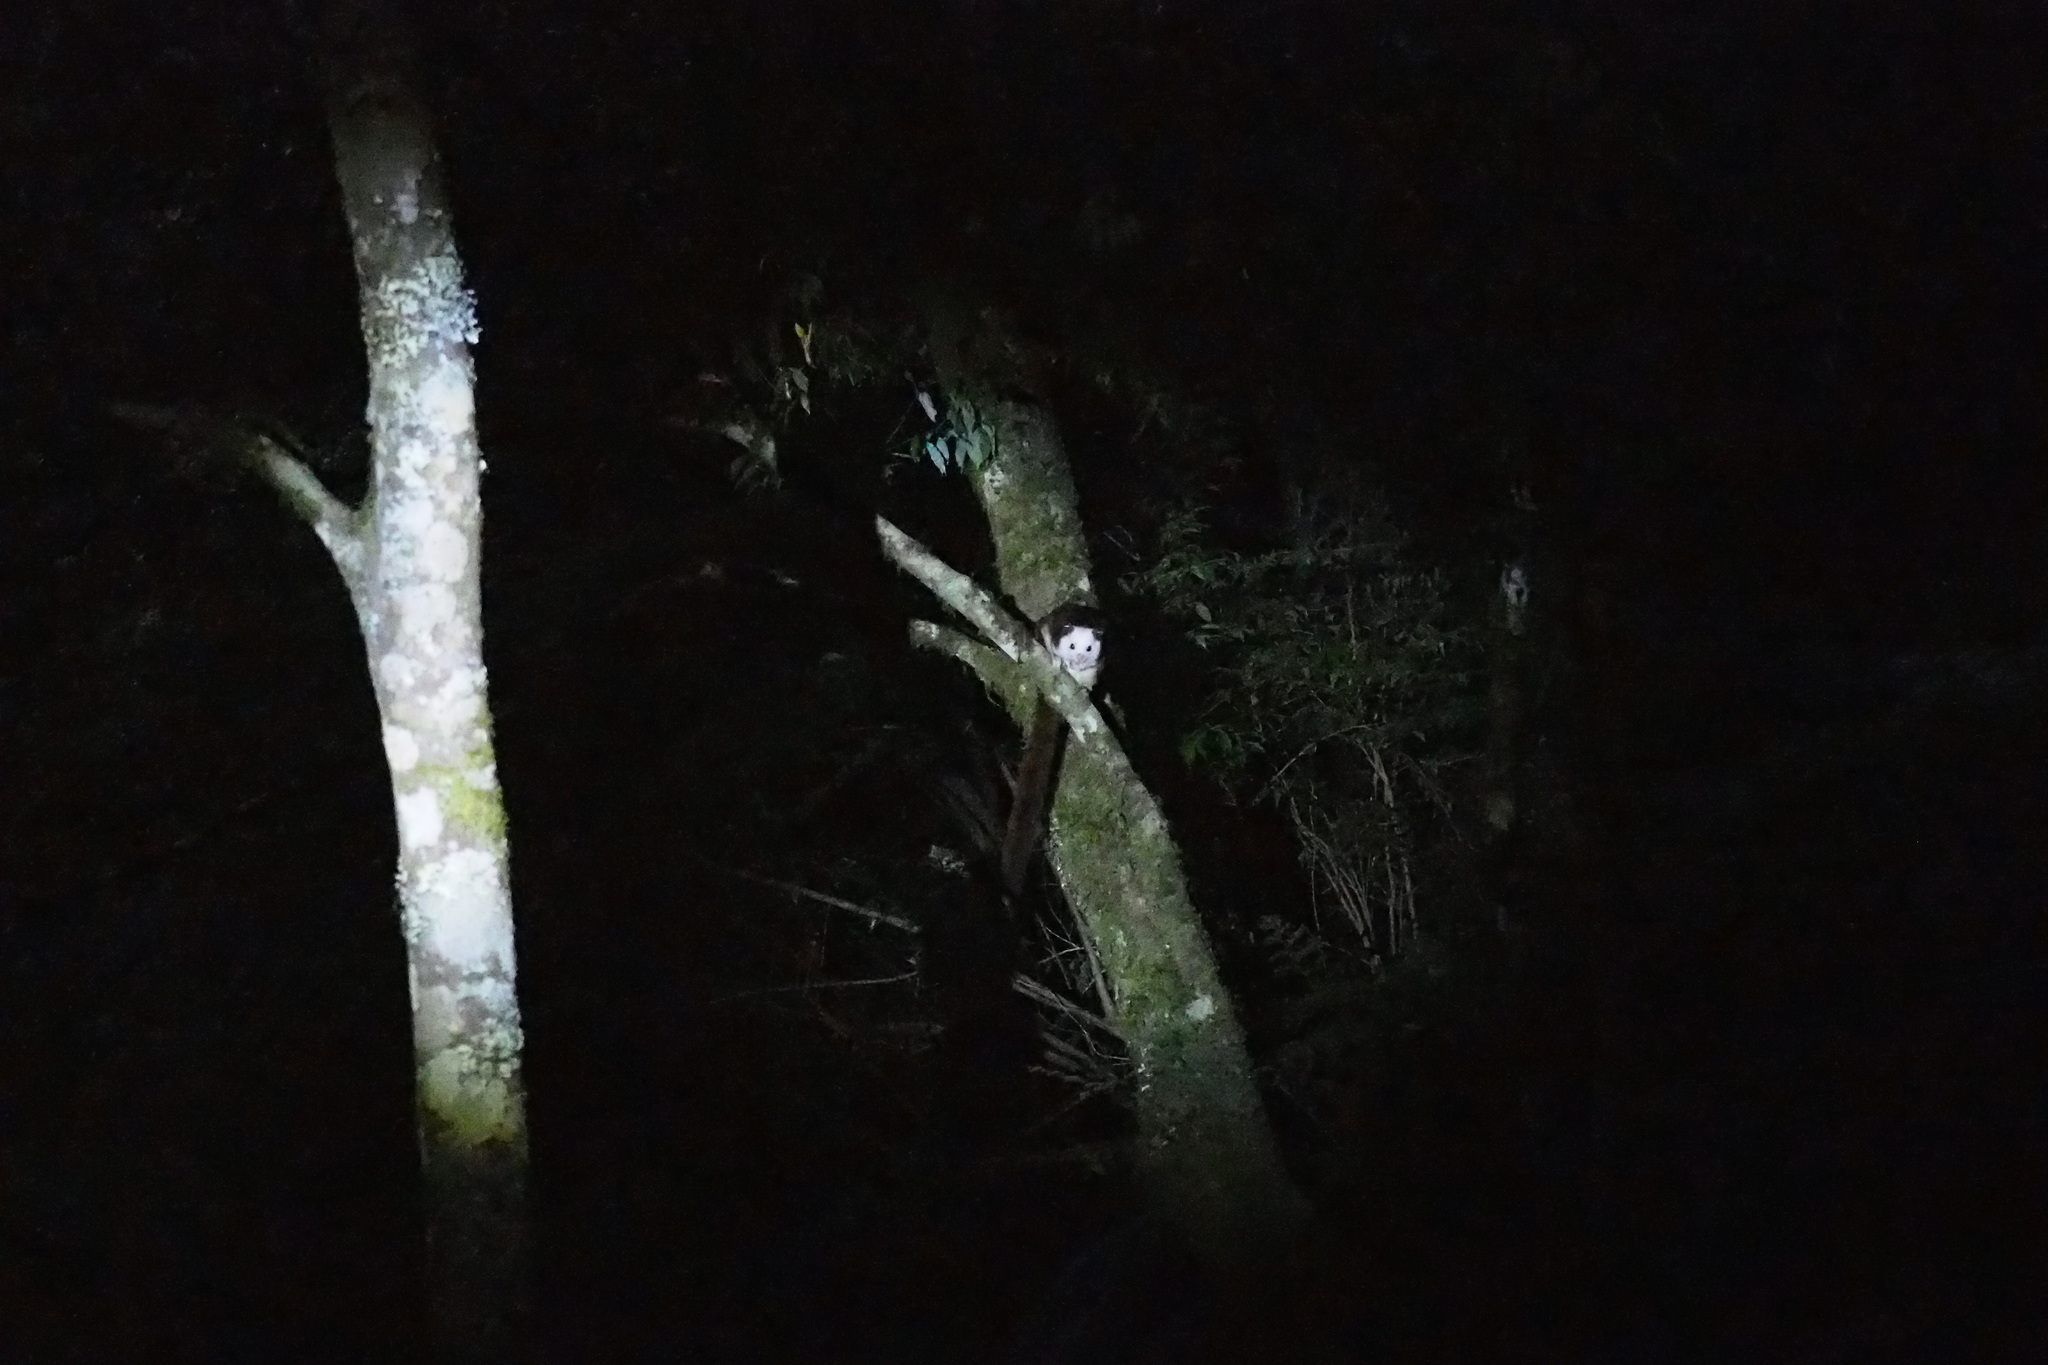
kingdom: Animalia
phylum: Chordata
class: Mammalia
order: Rodentia
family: Sciuridae
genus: Petaurista
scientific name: Petaurista lena
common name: Taiwan giant flying squirrel
